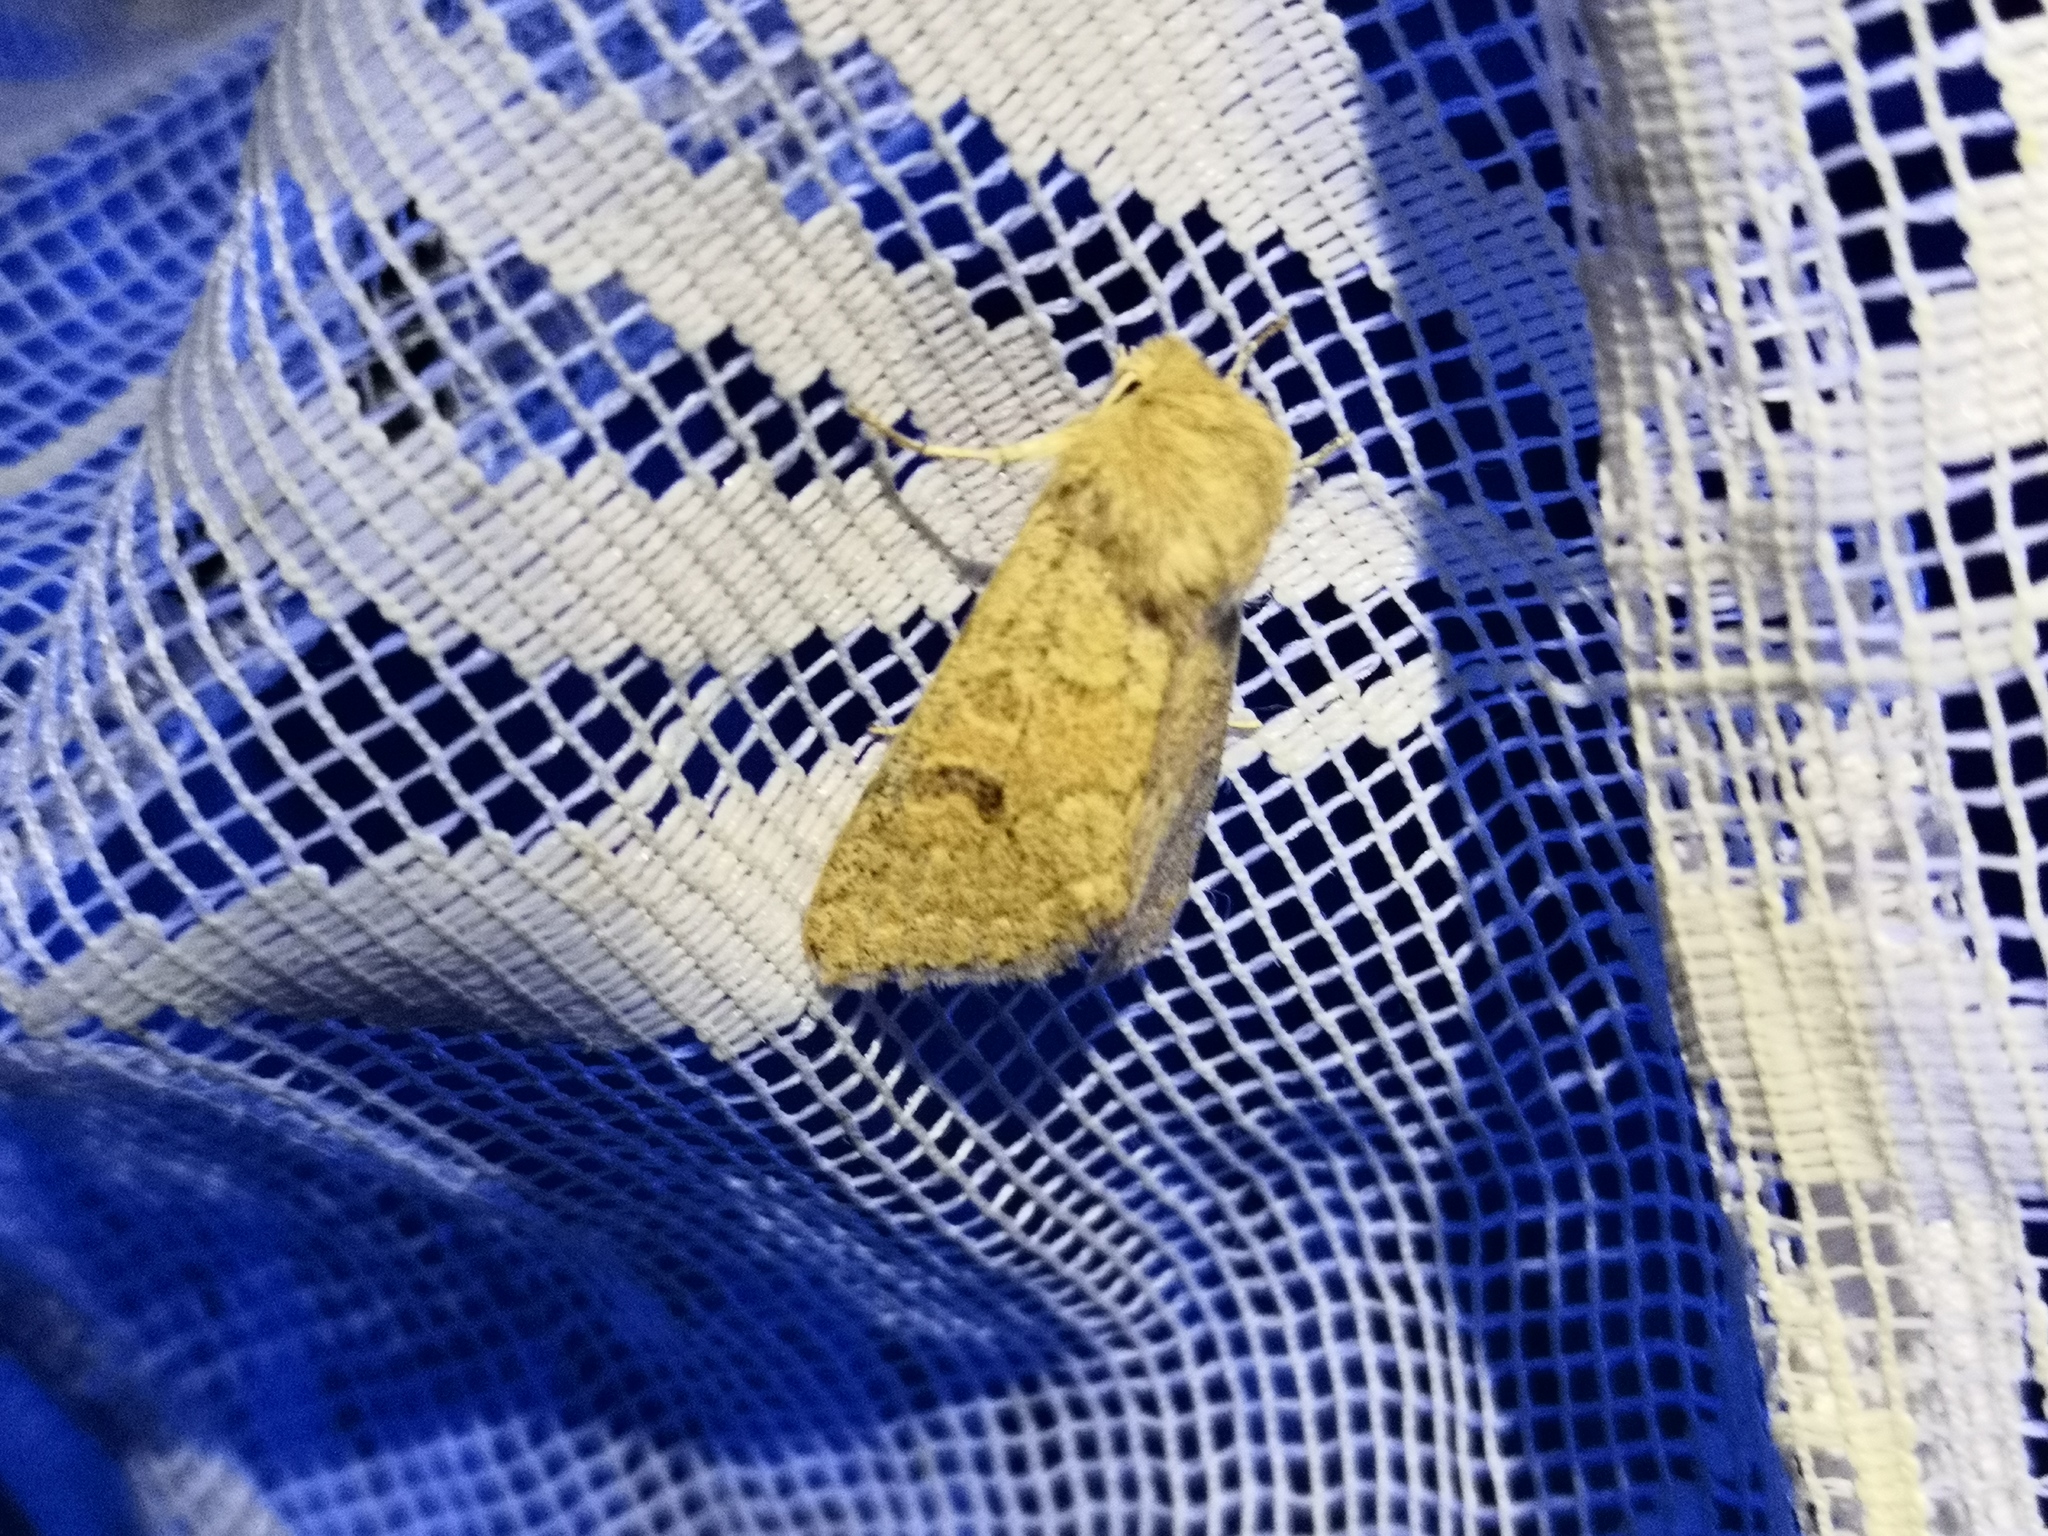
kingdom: Animalia
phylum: Arthropoda
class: Insecta
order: Lepidoptera
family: Noctuidae
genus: Orthosia
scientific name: Orthosia miniosa
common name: Blossom underwing
